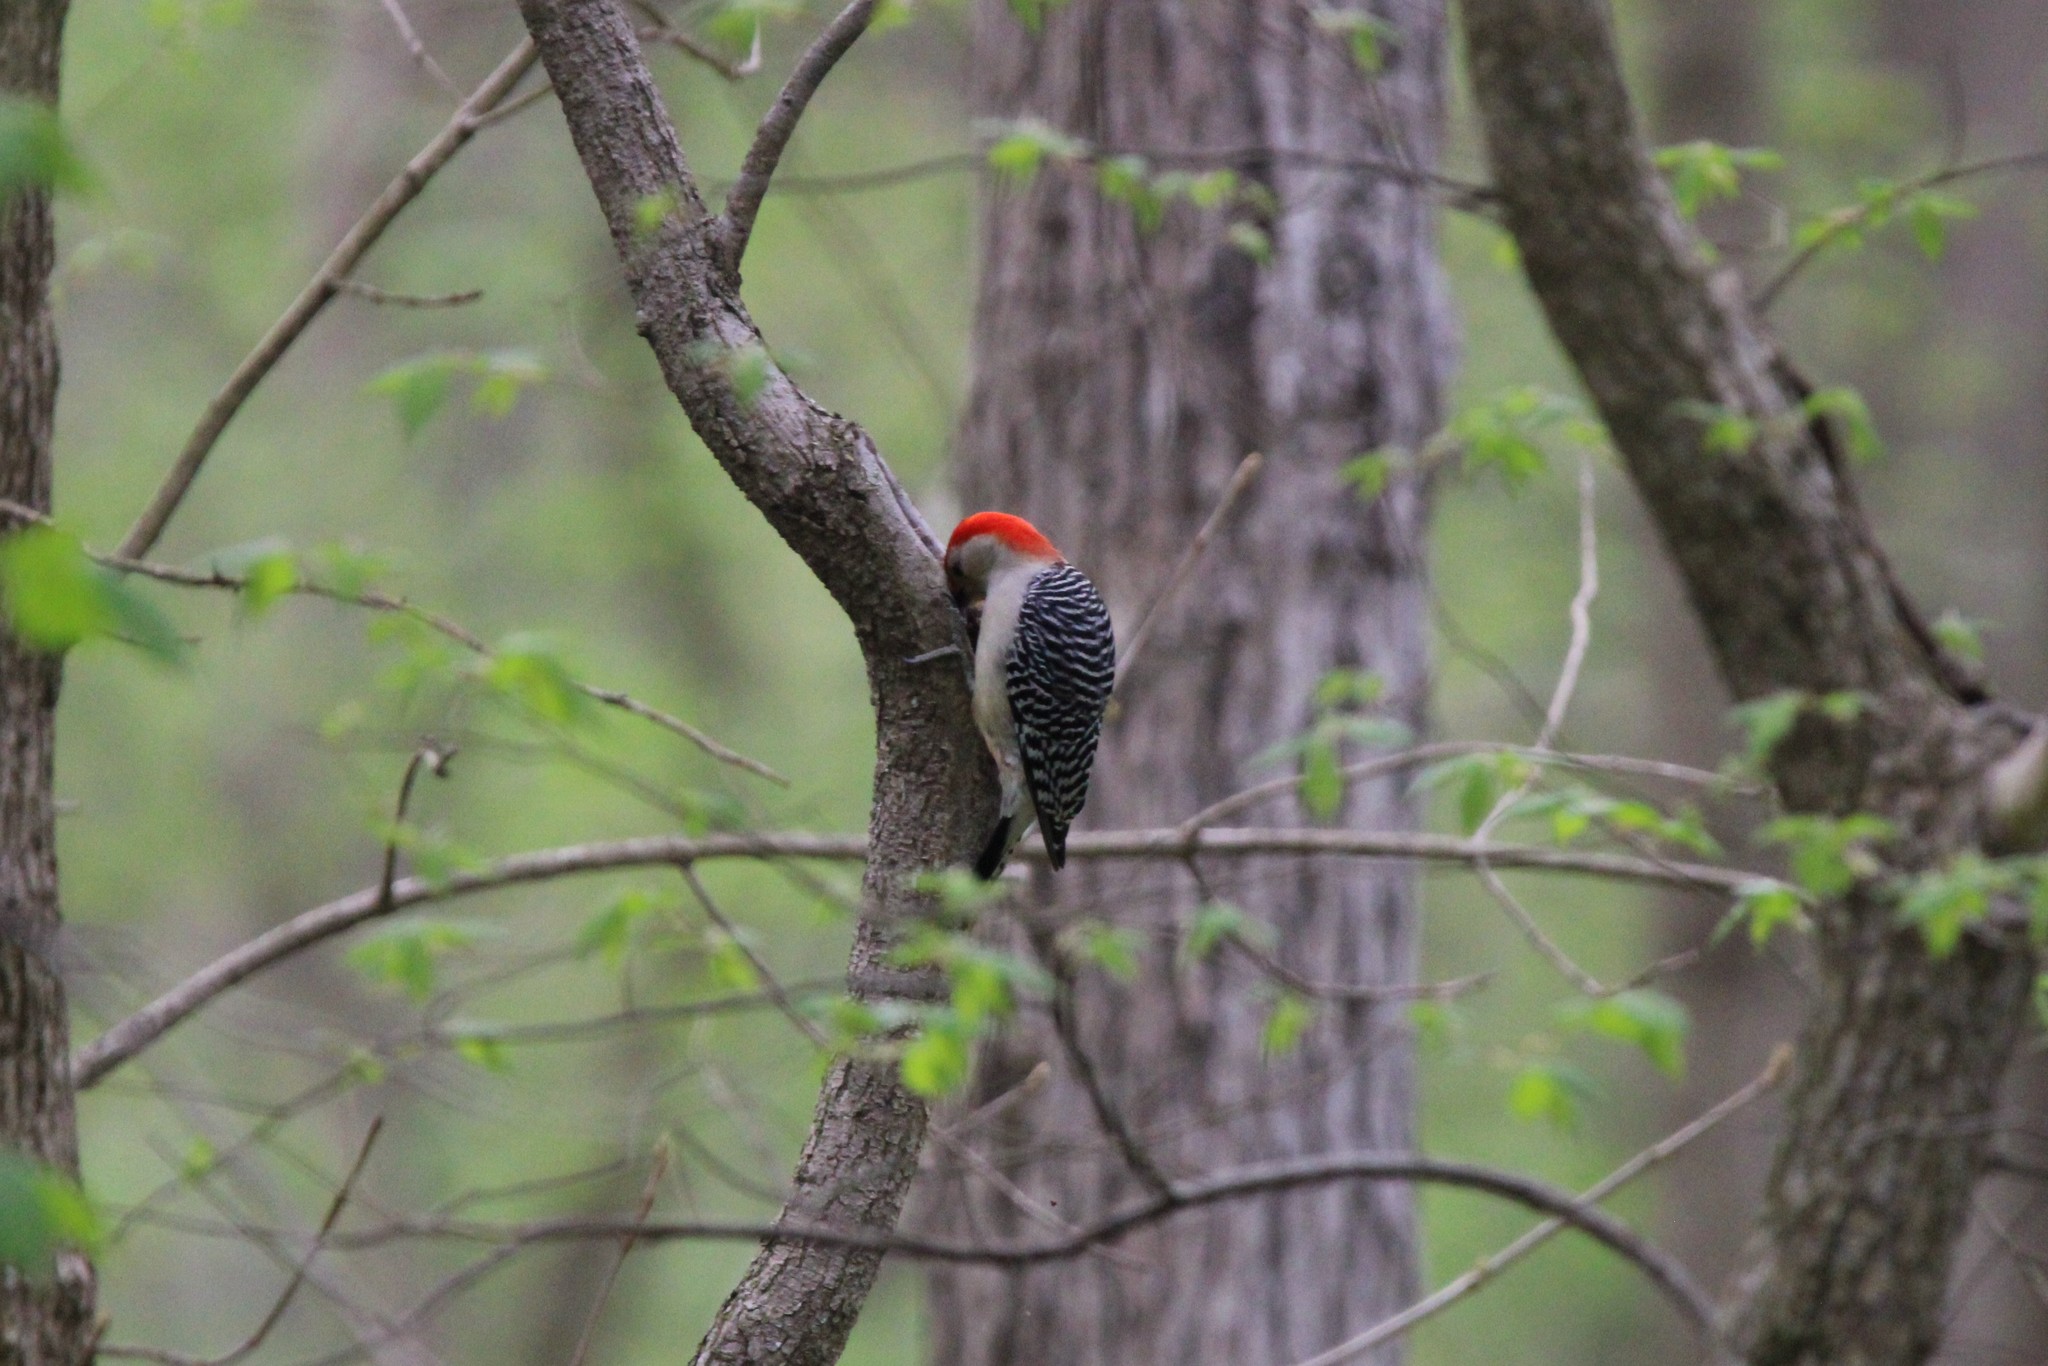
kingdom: Animalia
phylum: Chordata
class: Aves
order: Piciformes
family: Picidae
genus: Melanerpes
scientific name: Melanerpes carolinus
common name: Red-bellied woodpecker
